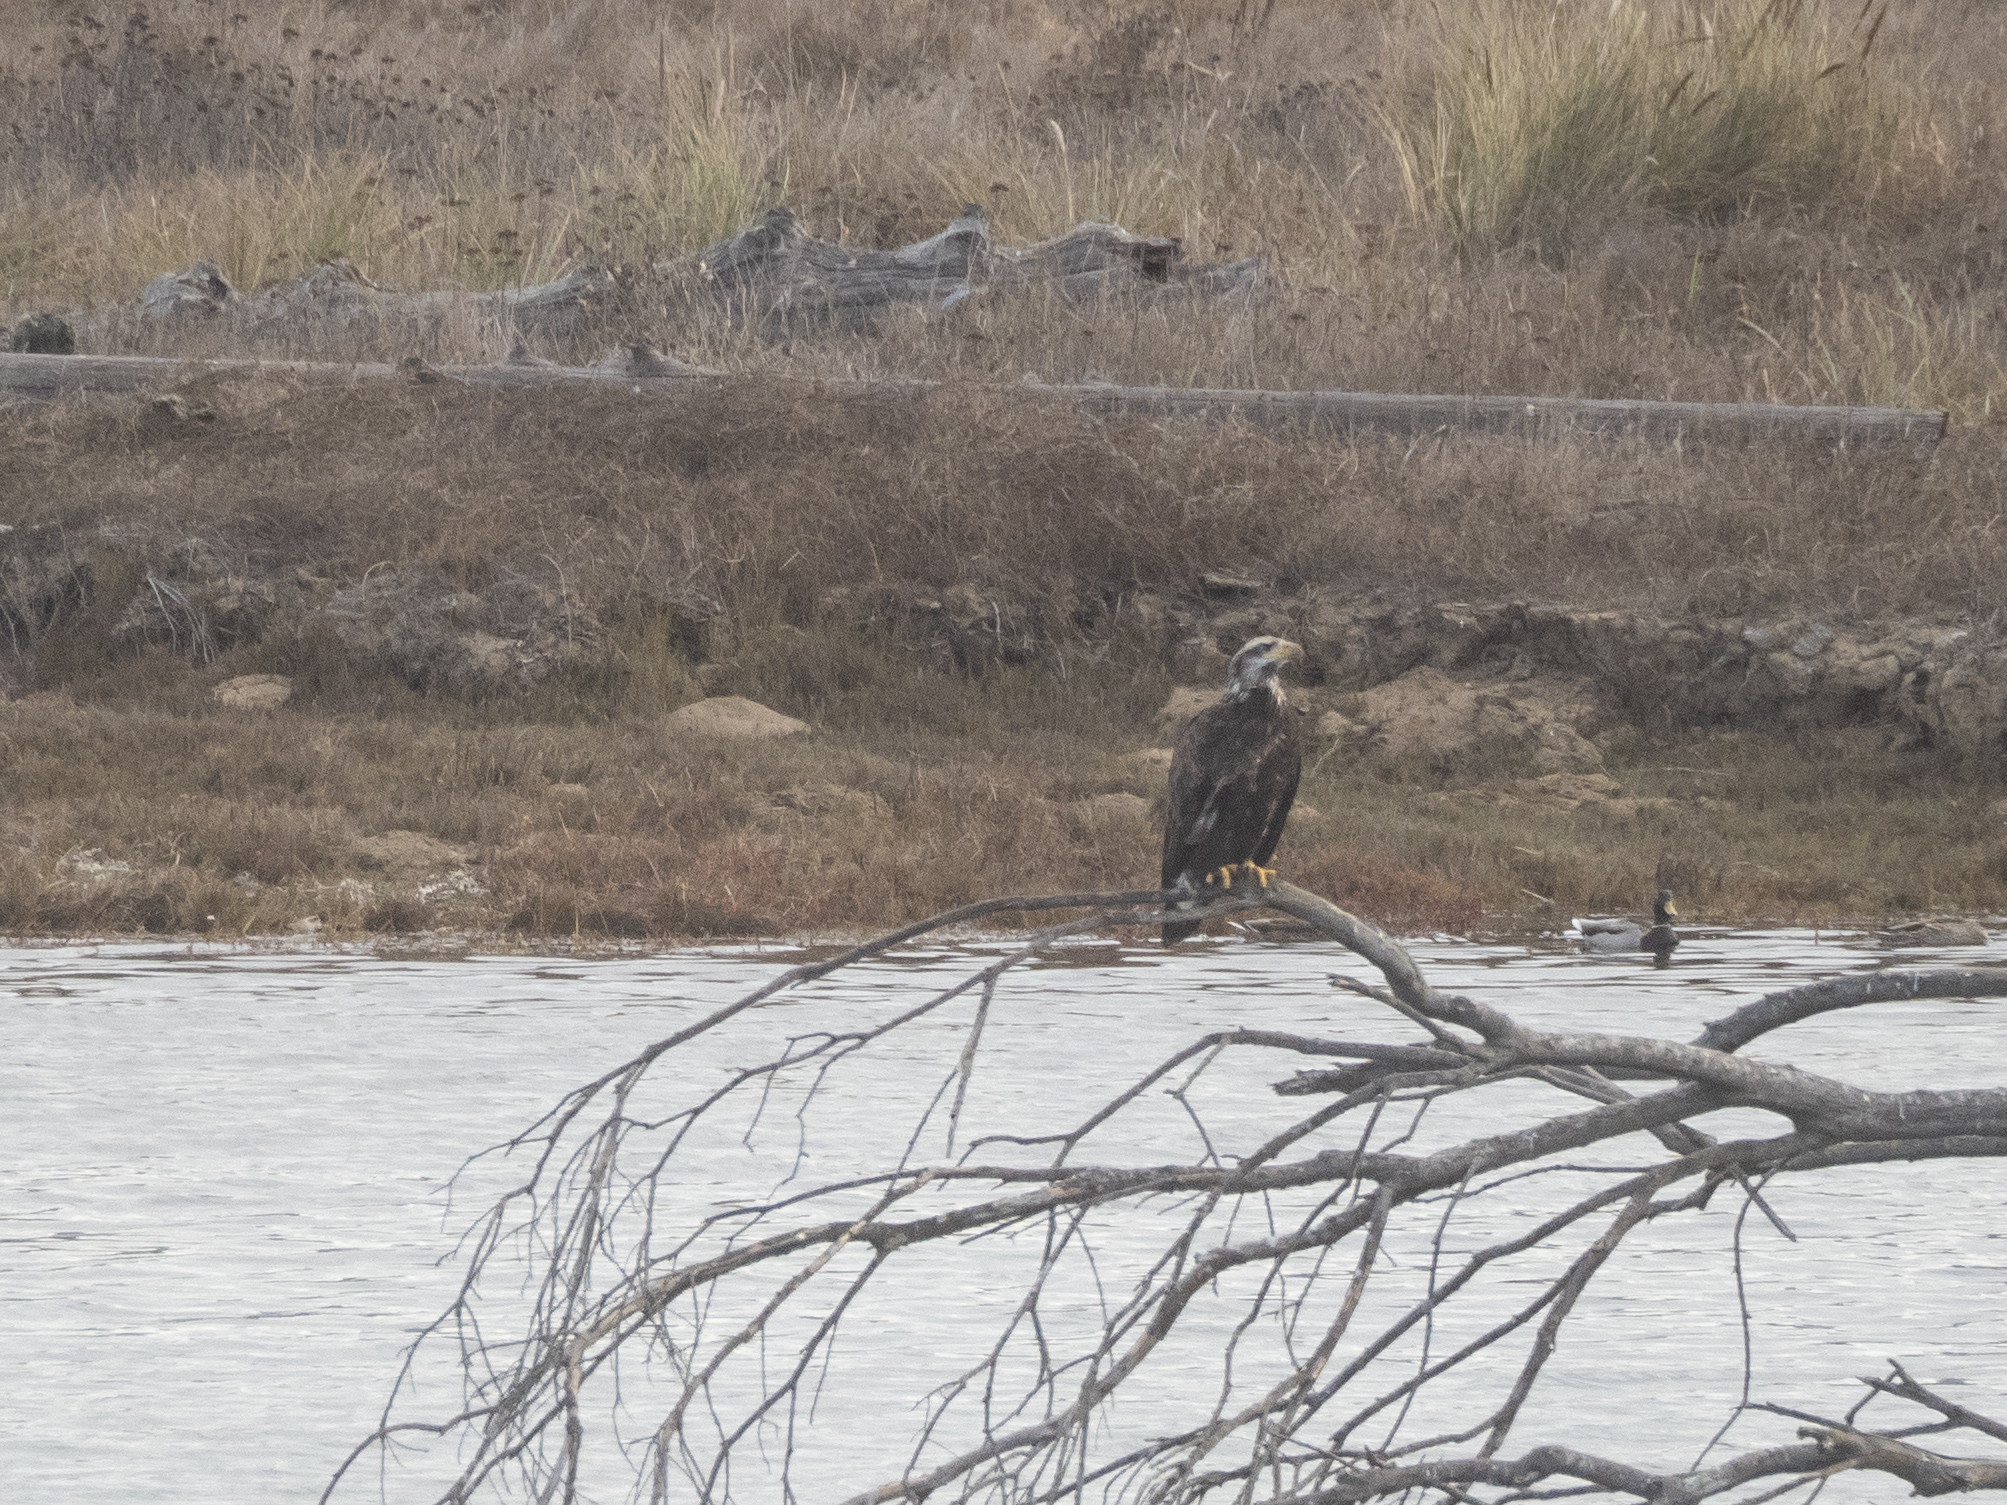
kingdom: Animalia
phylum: Chordata
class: Aves
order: Accipitriformes
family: Accipitridae
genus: Haliaeetus
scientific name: Haliaeetus leucocephalus
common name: Bald eagle
